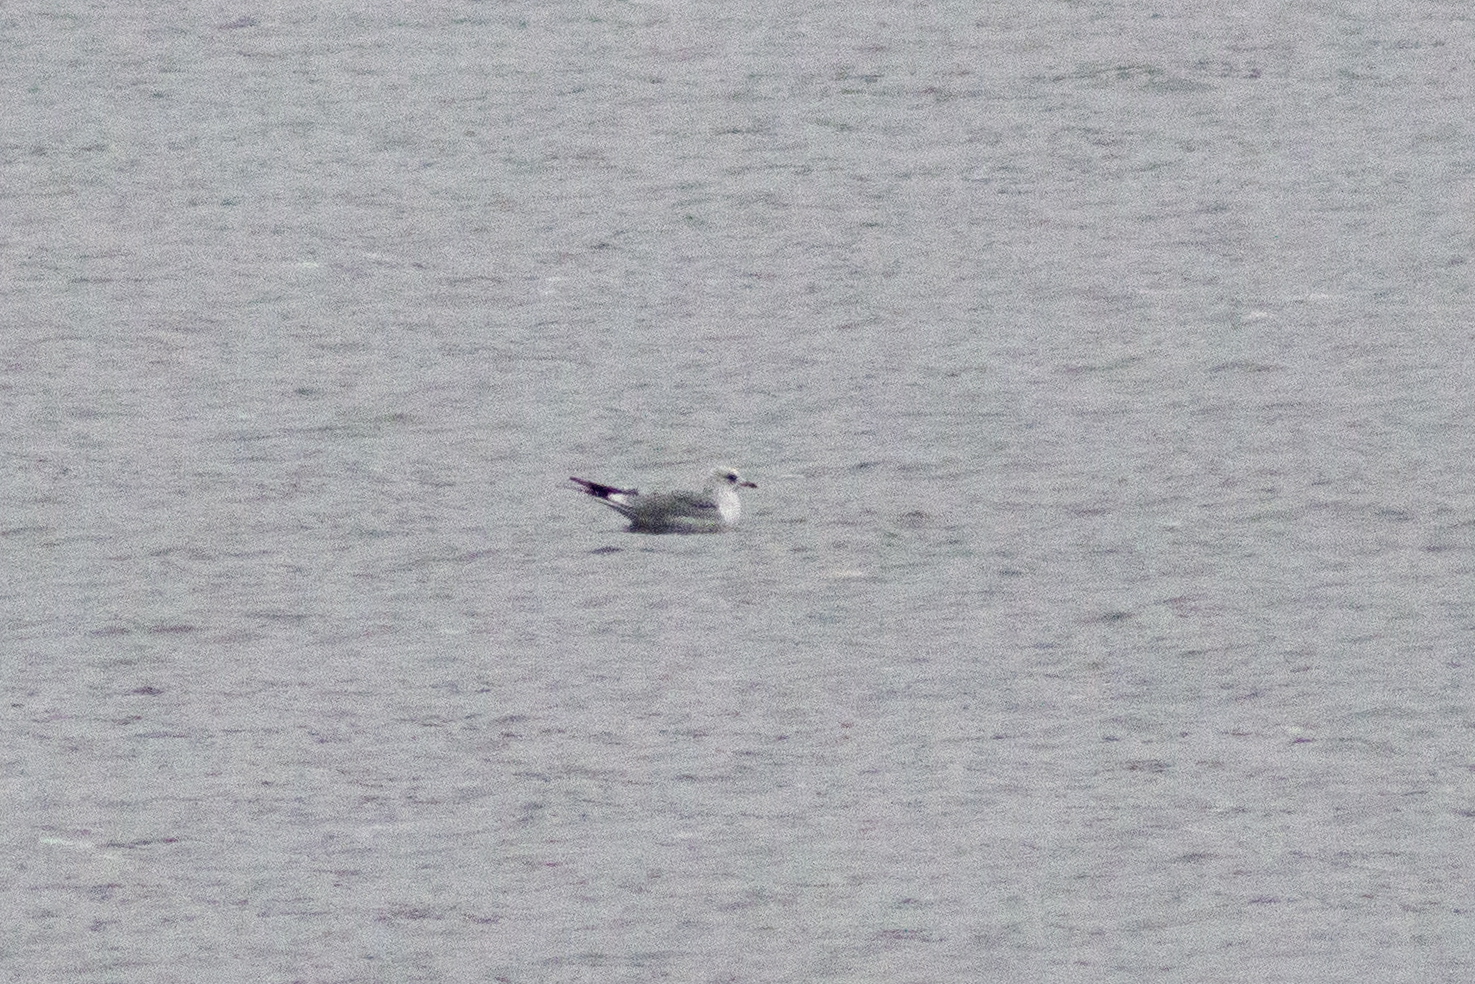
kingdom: Animalia
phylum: Chordata
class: Aves
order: Charadriiformes
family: Laridae
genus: Larus
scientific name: Larus canus
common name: Mew gull
